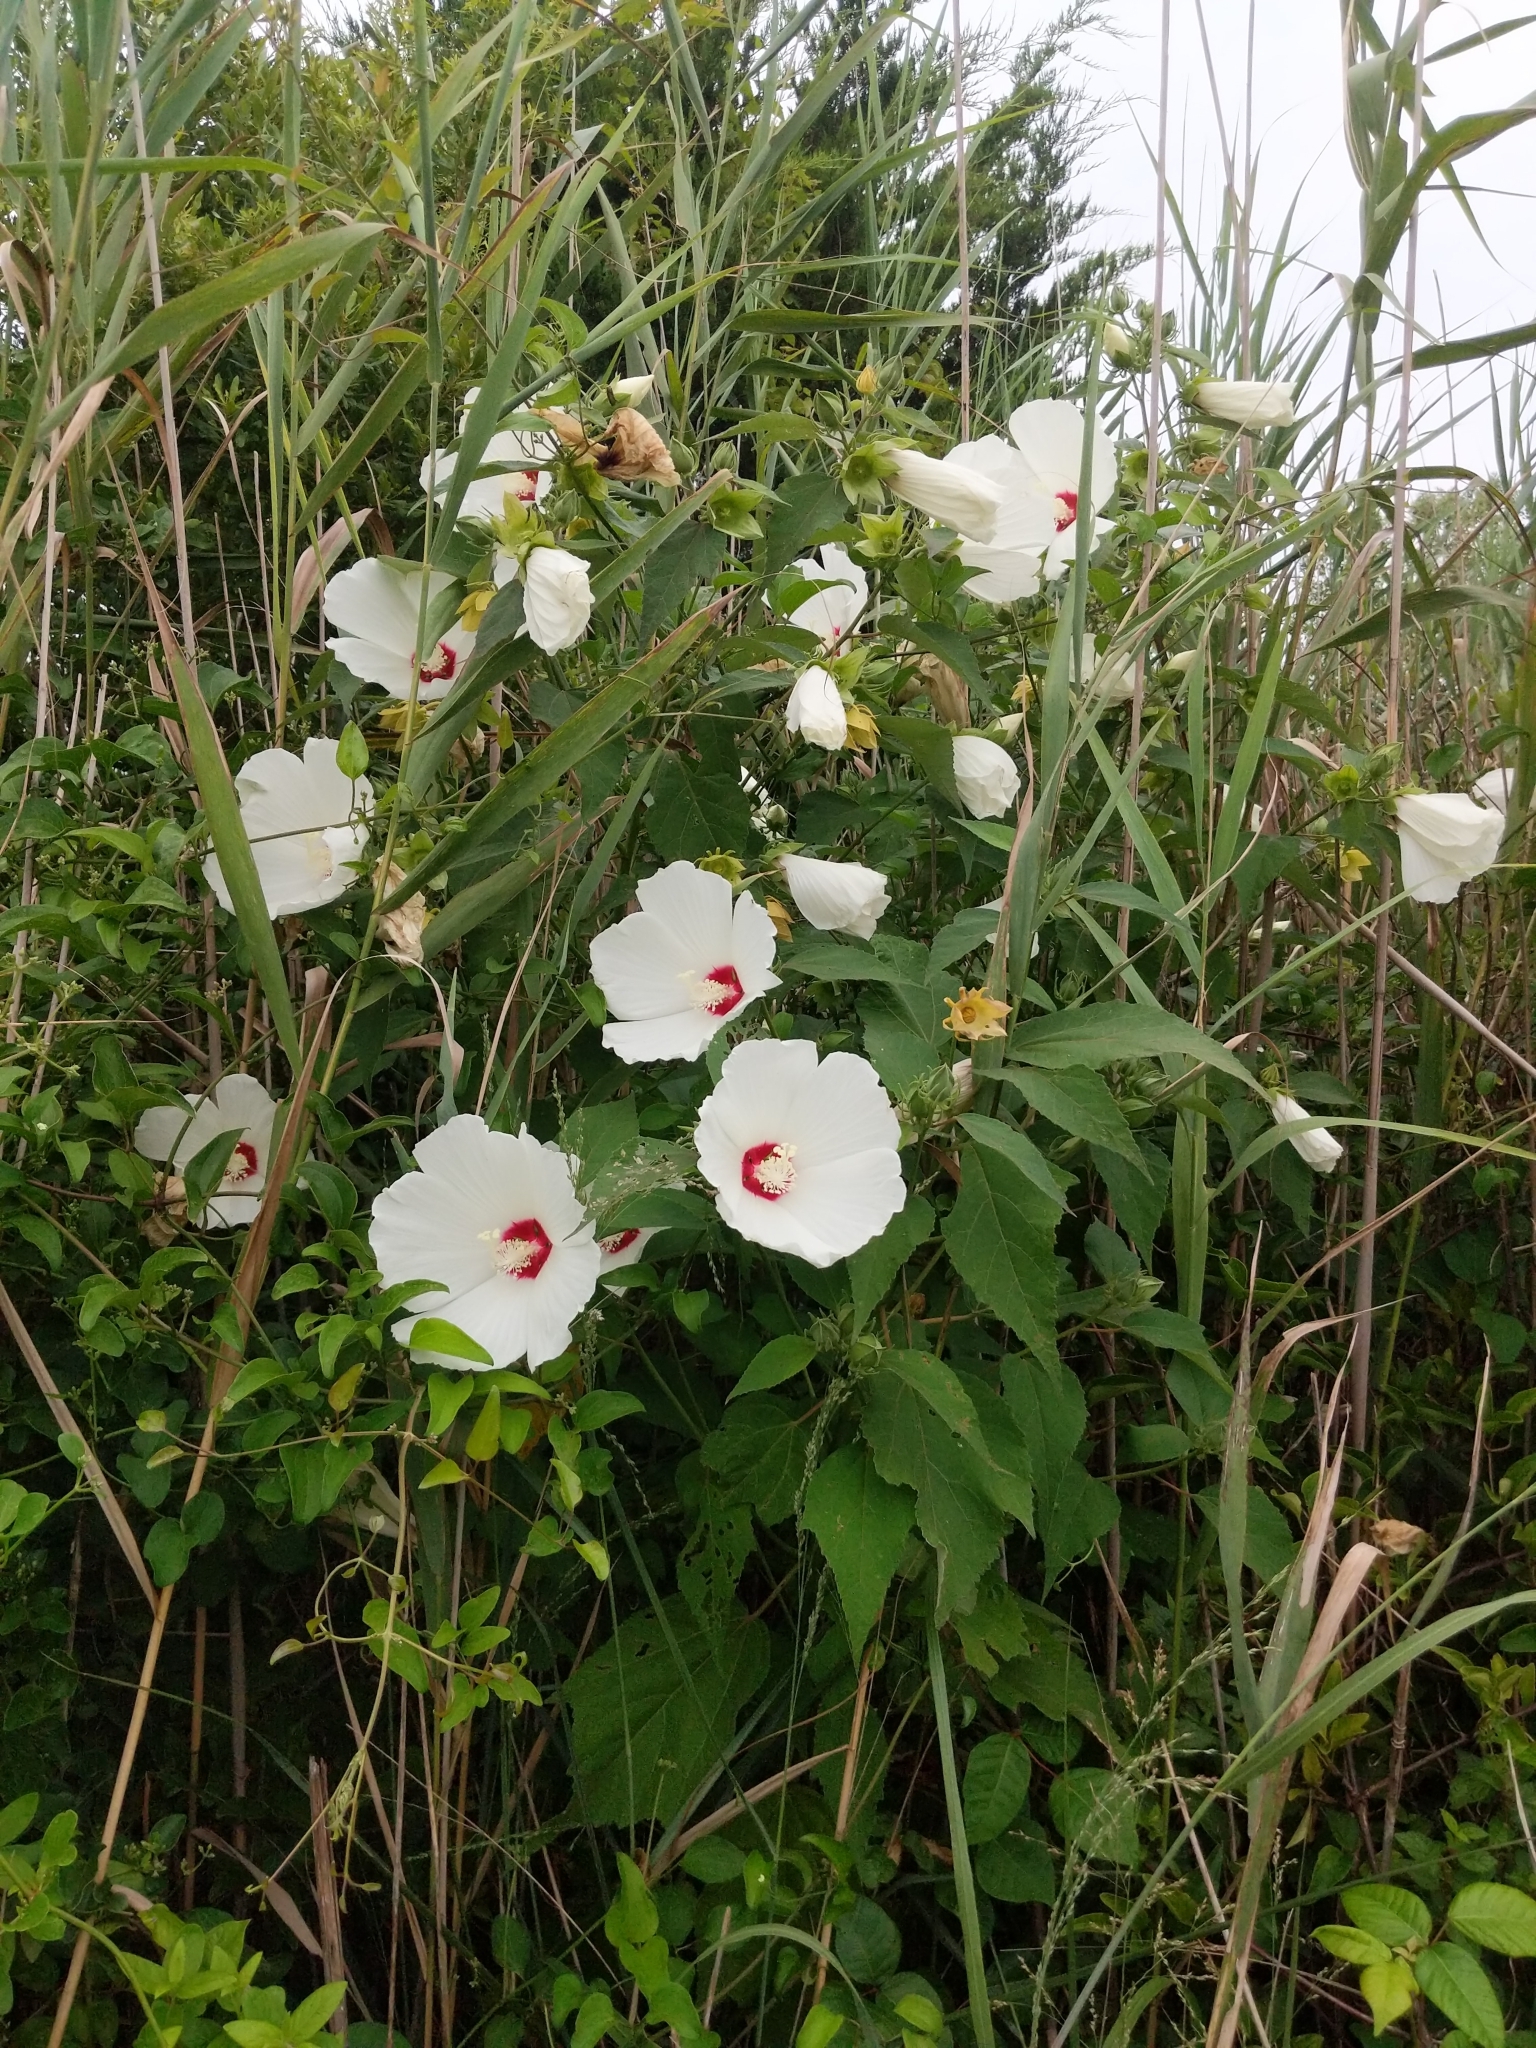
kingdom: Plantae
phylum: Tracheophyta
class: Magnoliopsida
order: Malvales
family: Malvaceae
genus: Hibiscus
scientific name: Hibiscus moscheutos
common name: Common rose-mallow
